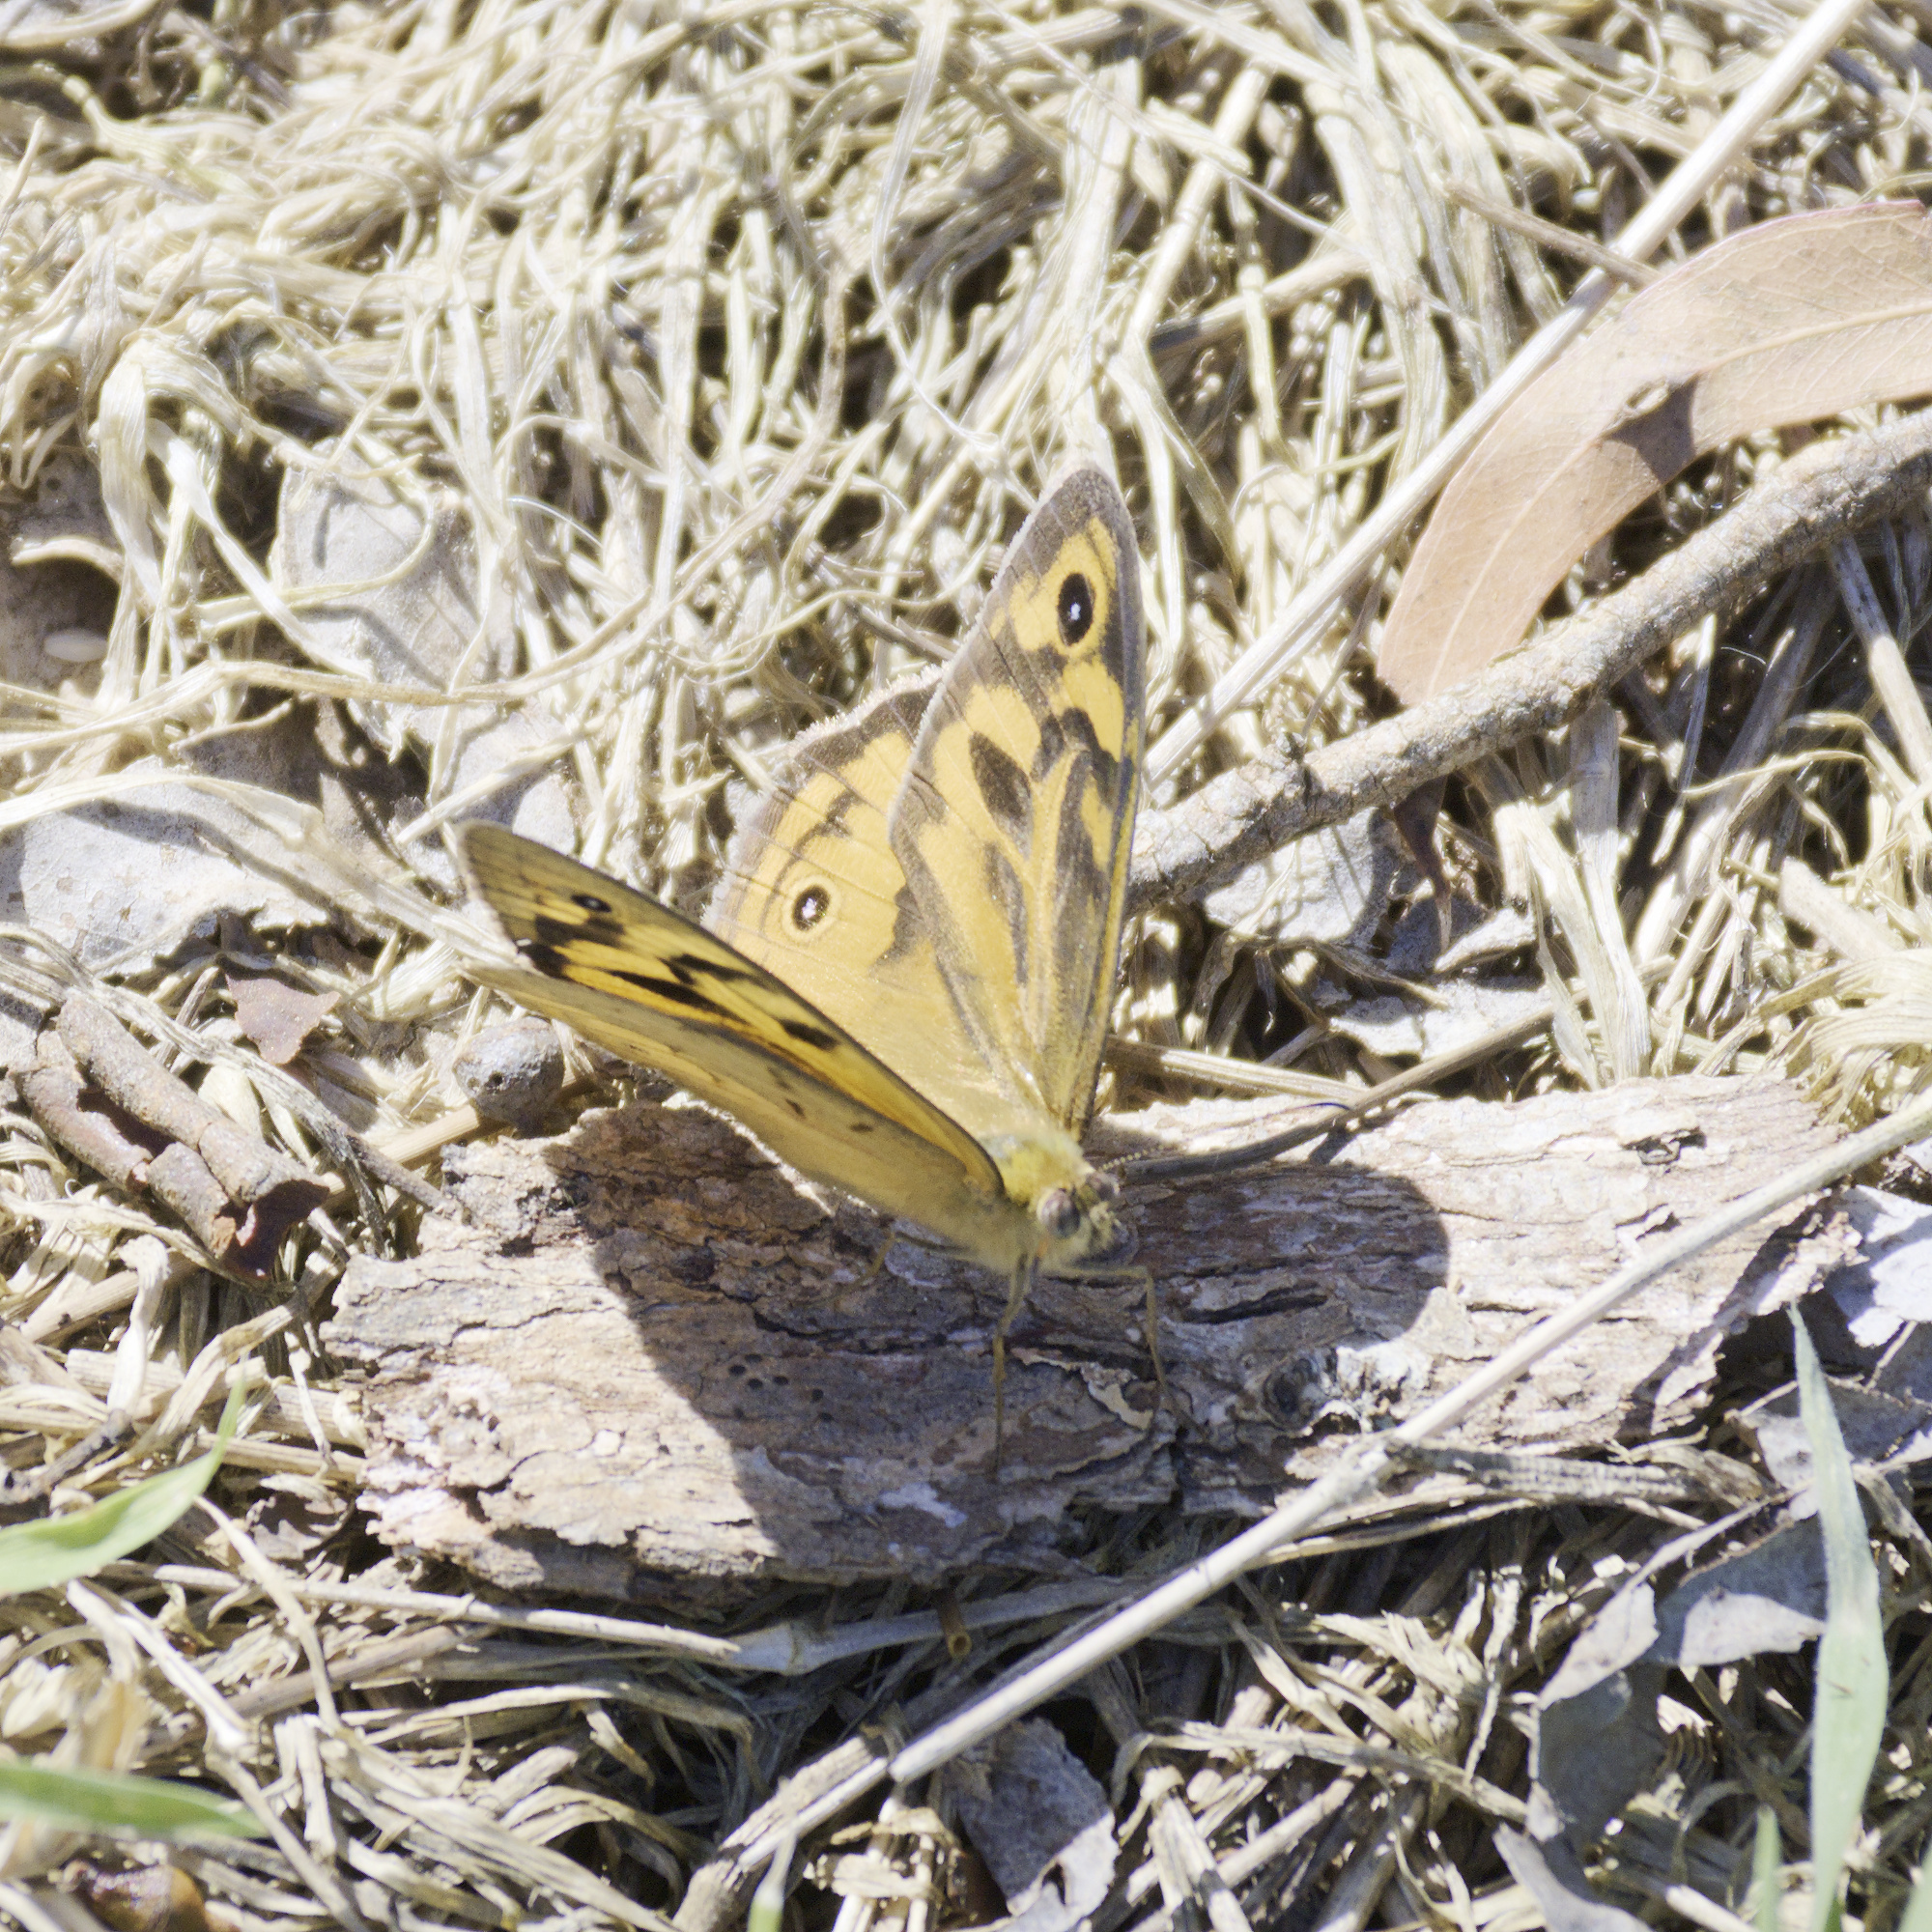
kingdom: Animalia
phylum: Arthropoda
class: Insecta
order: Lepidoptera
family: Nymphalidae
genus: Heteronympha
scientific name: Heteronympha merope
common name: Common brown
